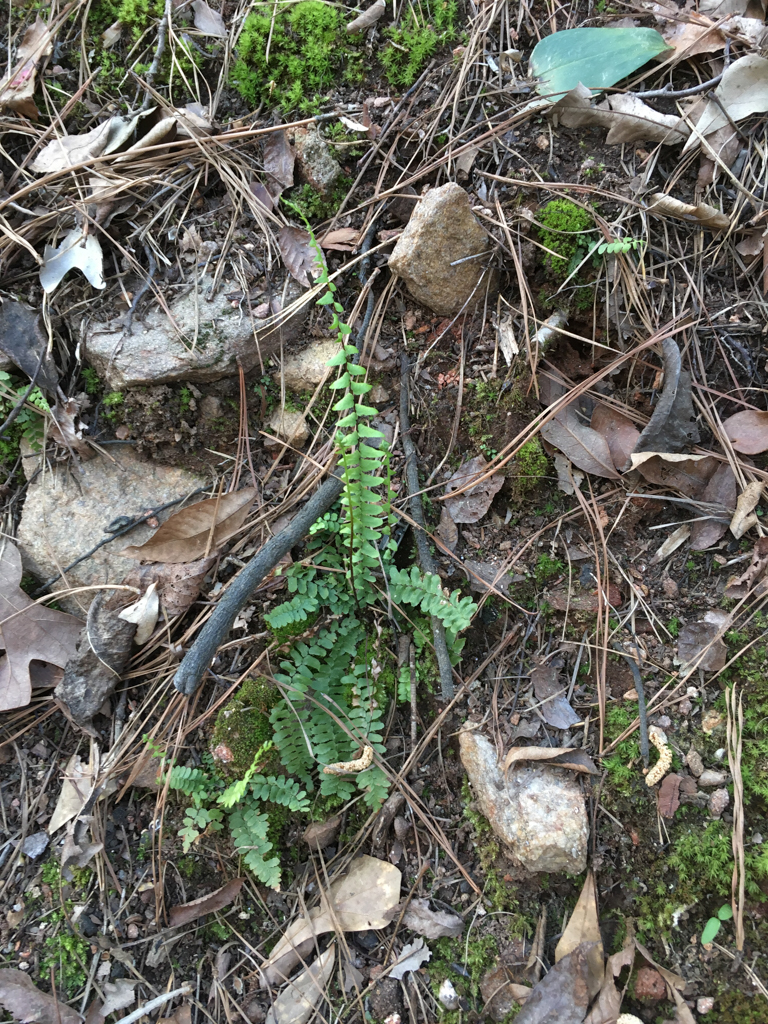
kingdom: Plantae
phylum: Tracheophyta
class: Polypodiopsida
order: Polypodiales
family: Aspleniaceae
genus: Asplenium
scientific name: Asplenium platyneuron
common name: Ebony spleenwort
